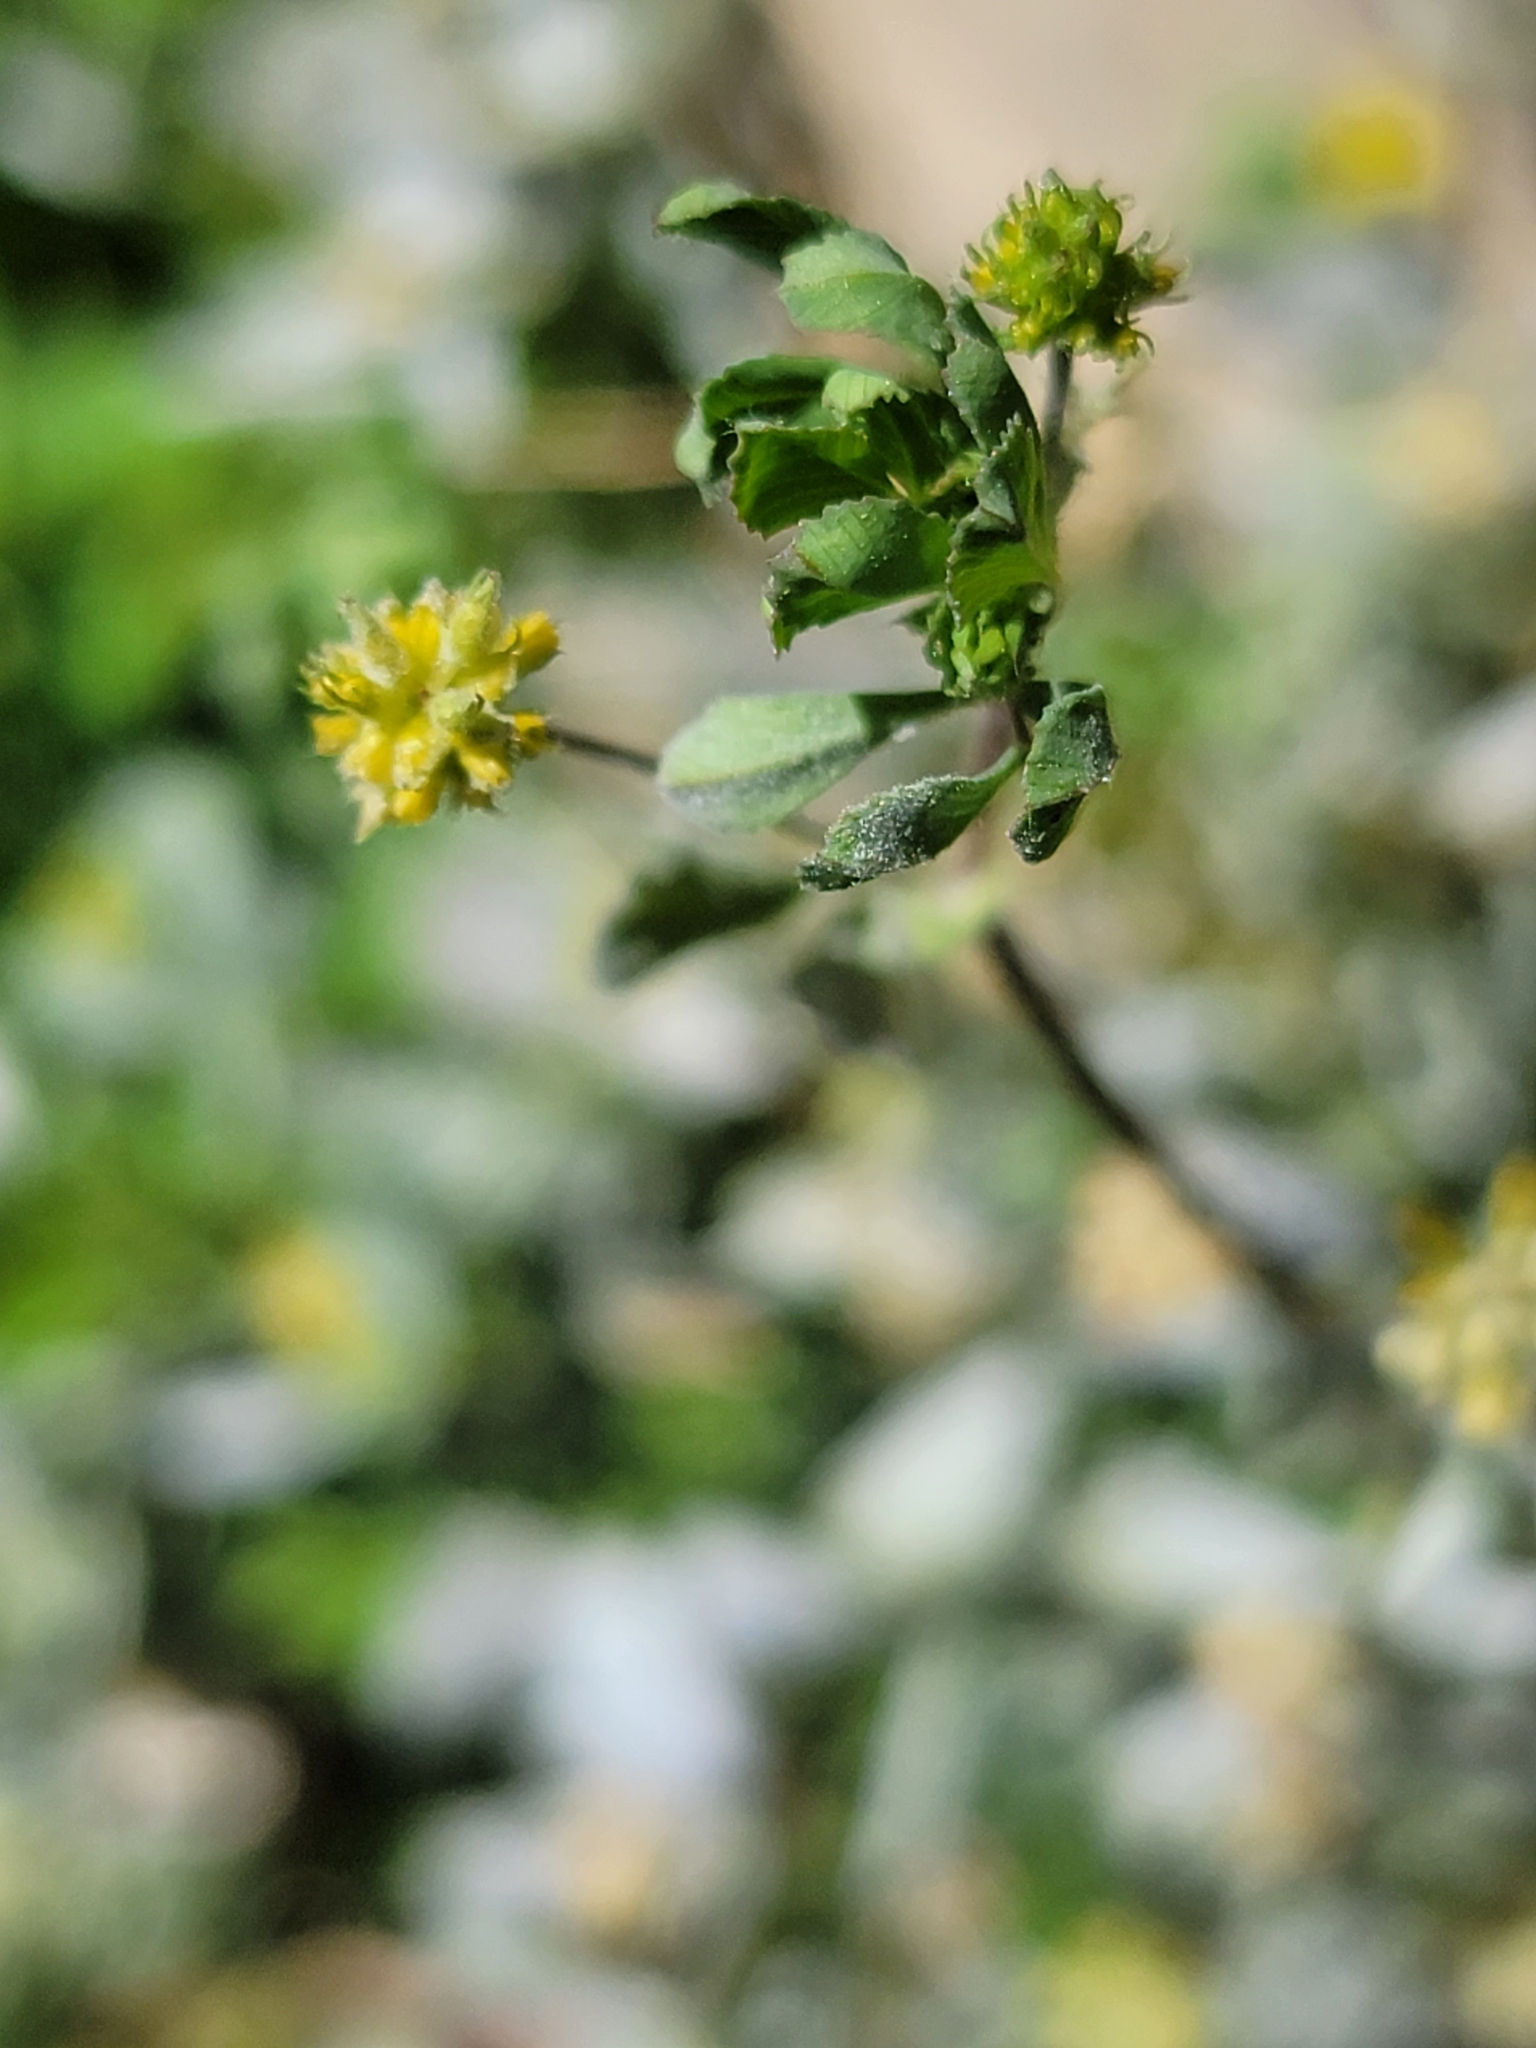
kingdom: Plantae
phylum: Tracheophyta
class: Magnoliopsida
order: Fabales
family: Fabaceae
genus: Trifolium
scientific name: Trifolium dubium
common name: Suckling clover
